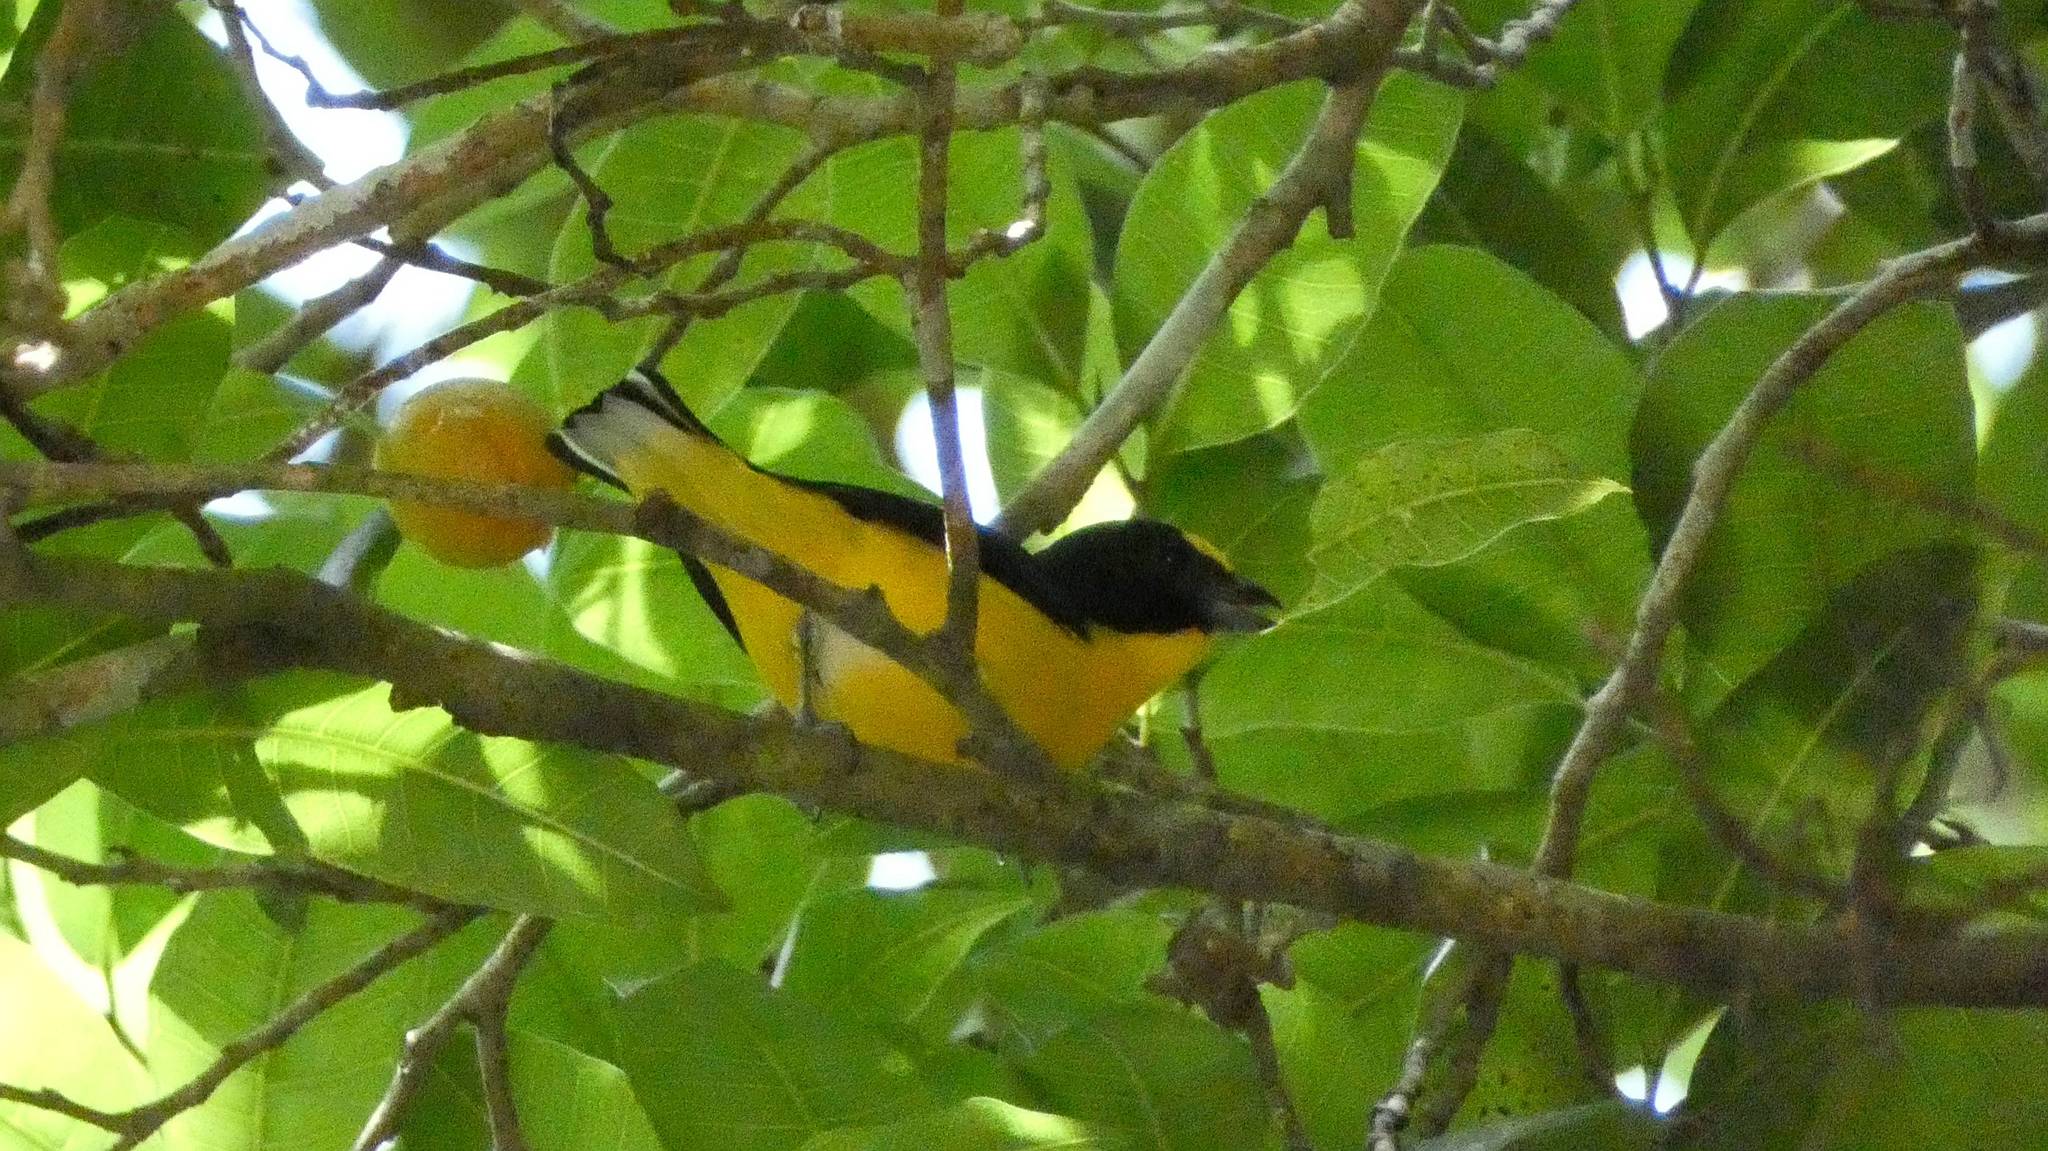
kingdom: Animalia
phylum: Chordata
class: Aves
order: Passeriformes
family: Fringillidae
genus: Euphonia
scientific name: Euphonia hirundinacea
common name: Yellow-throated euphonia
